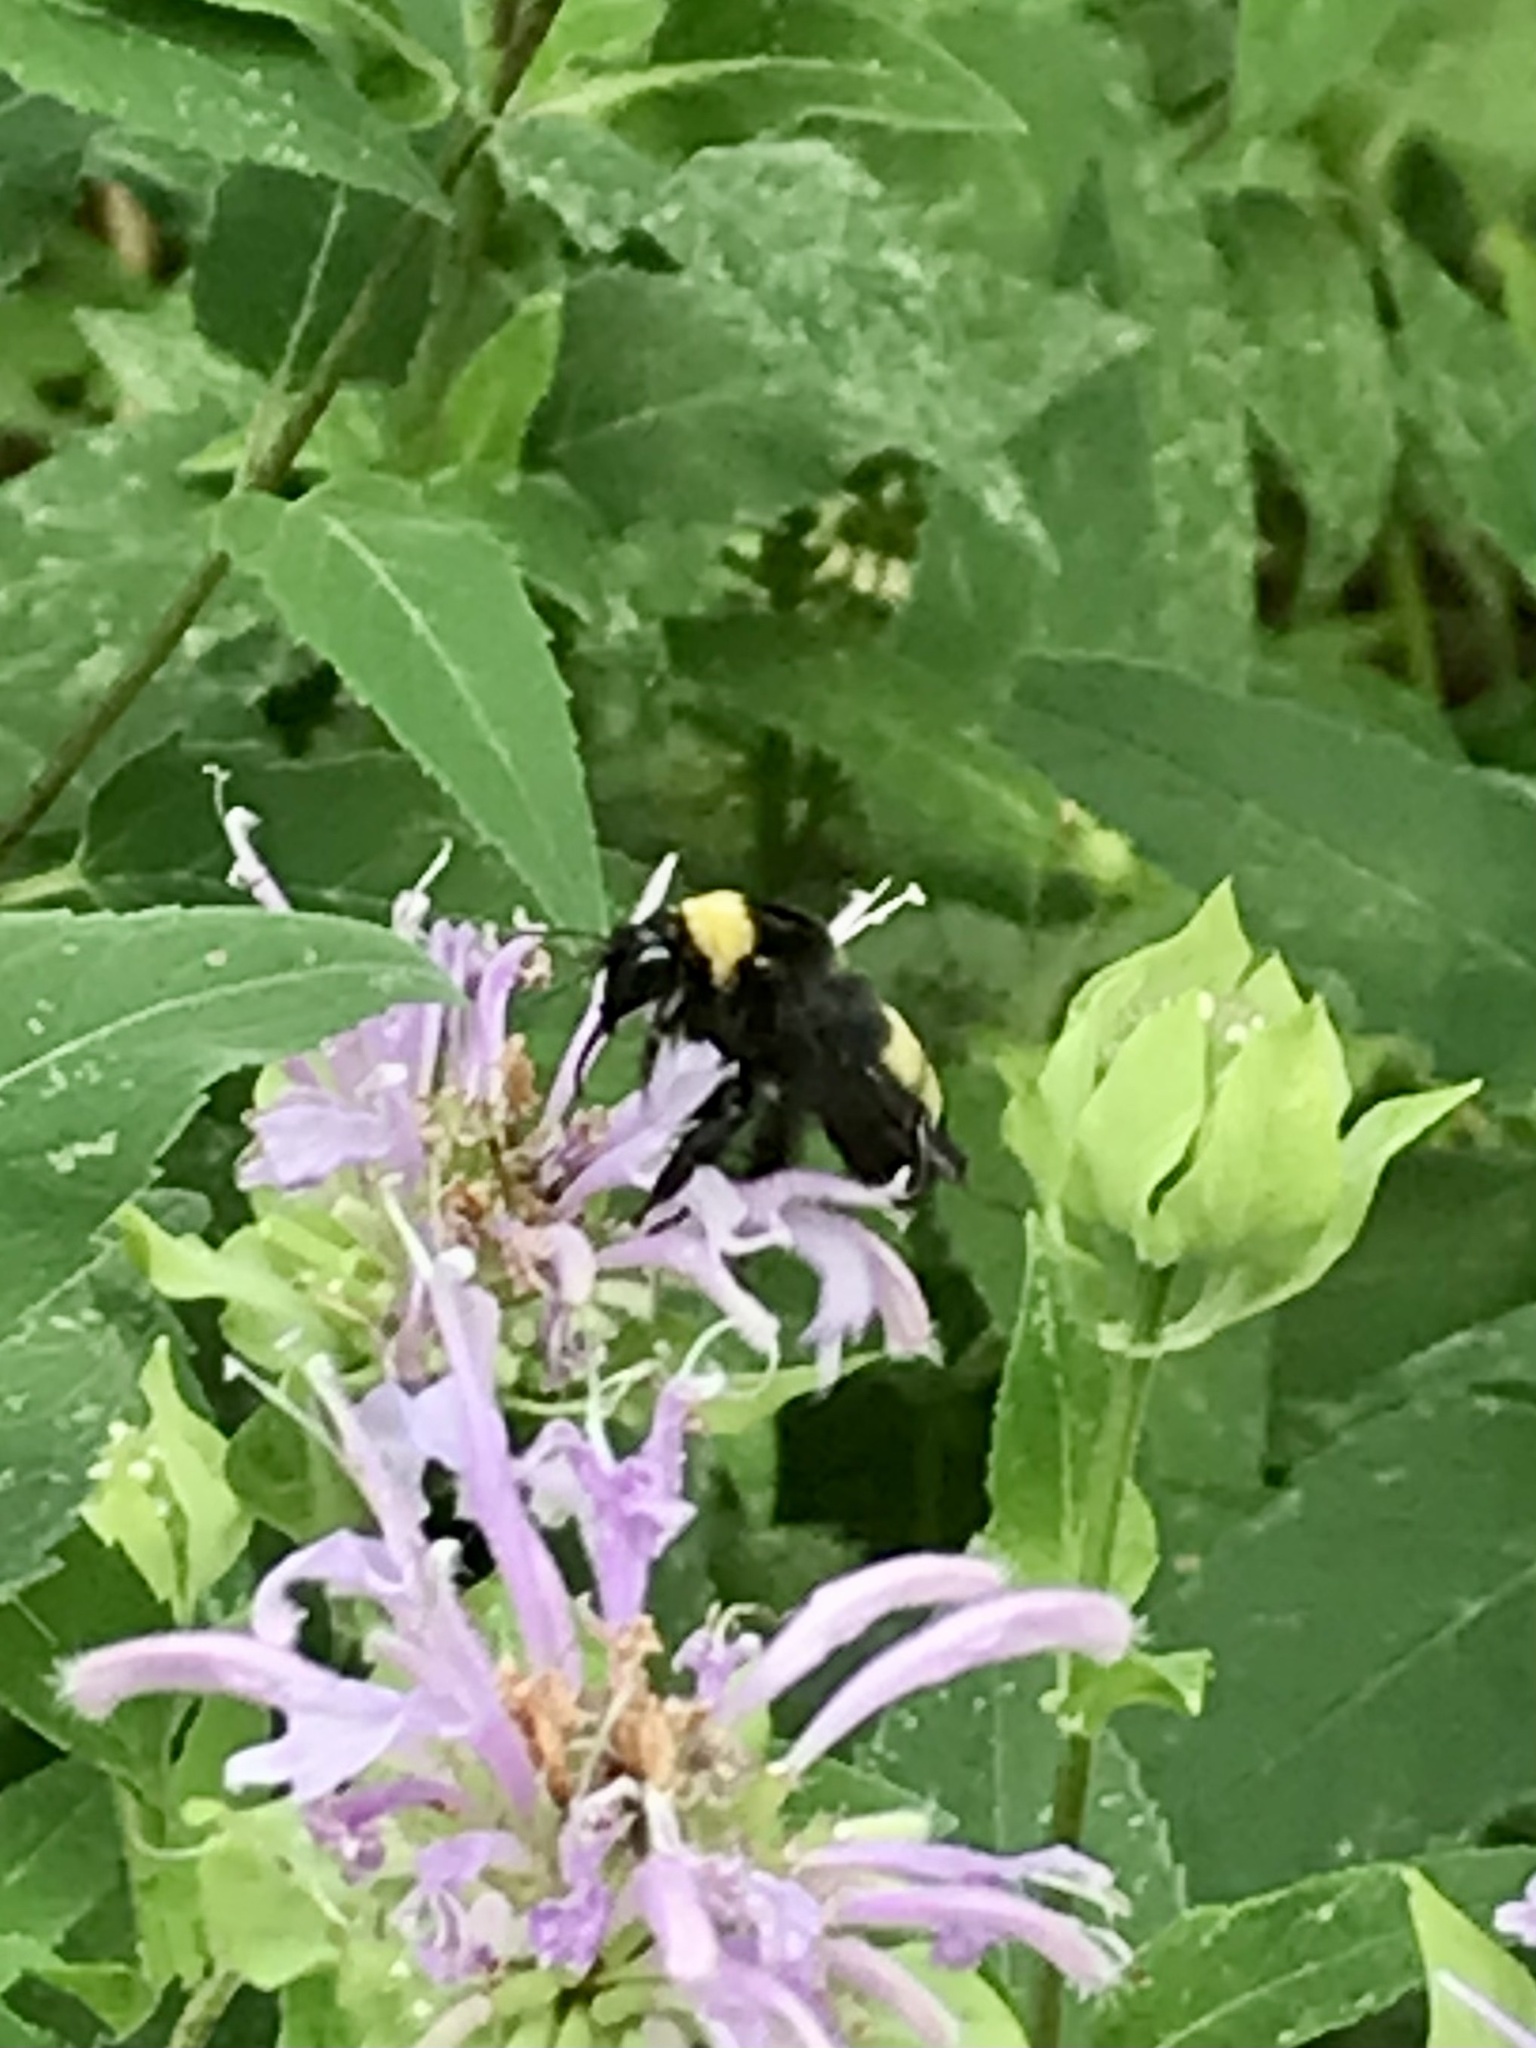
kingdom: Animalia
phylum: Arthropoda
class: Insecta
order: Hymenoptera
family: Apidae
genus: Bombus
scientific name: Bombus auricomus
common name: Black and gold bumble bee
